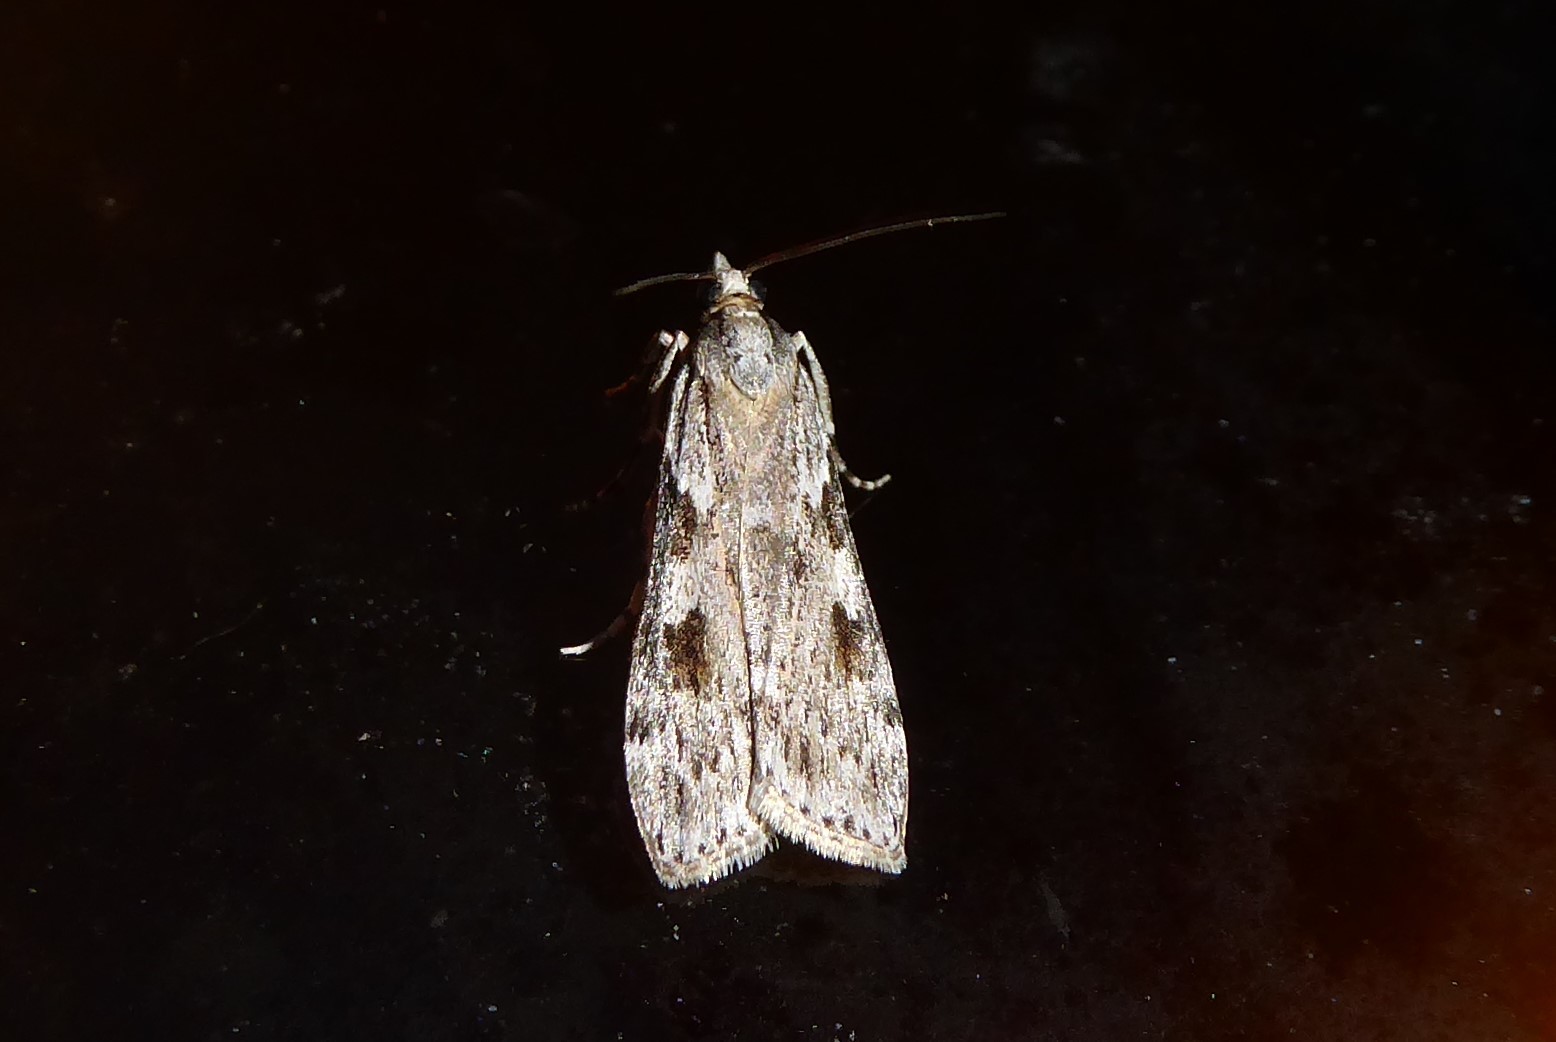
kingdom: Animalia
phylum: Arthropoda
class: Insecta
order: Lepidoptera
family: Crambidae
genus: Scoparia
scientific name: Scoparia halopis
